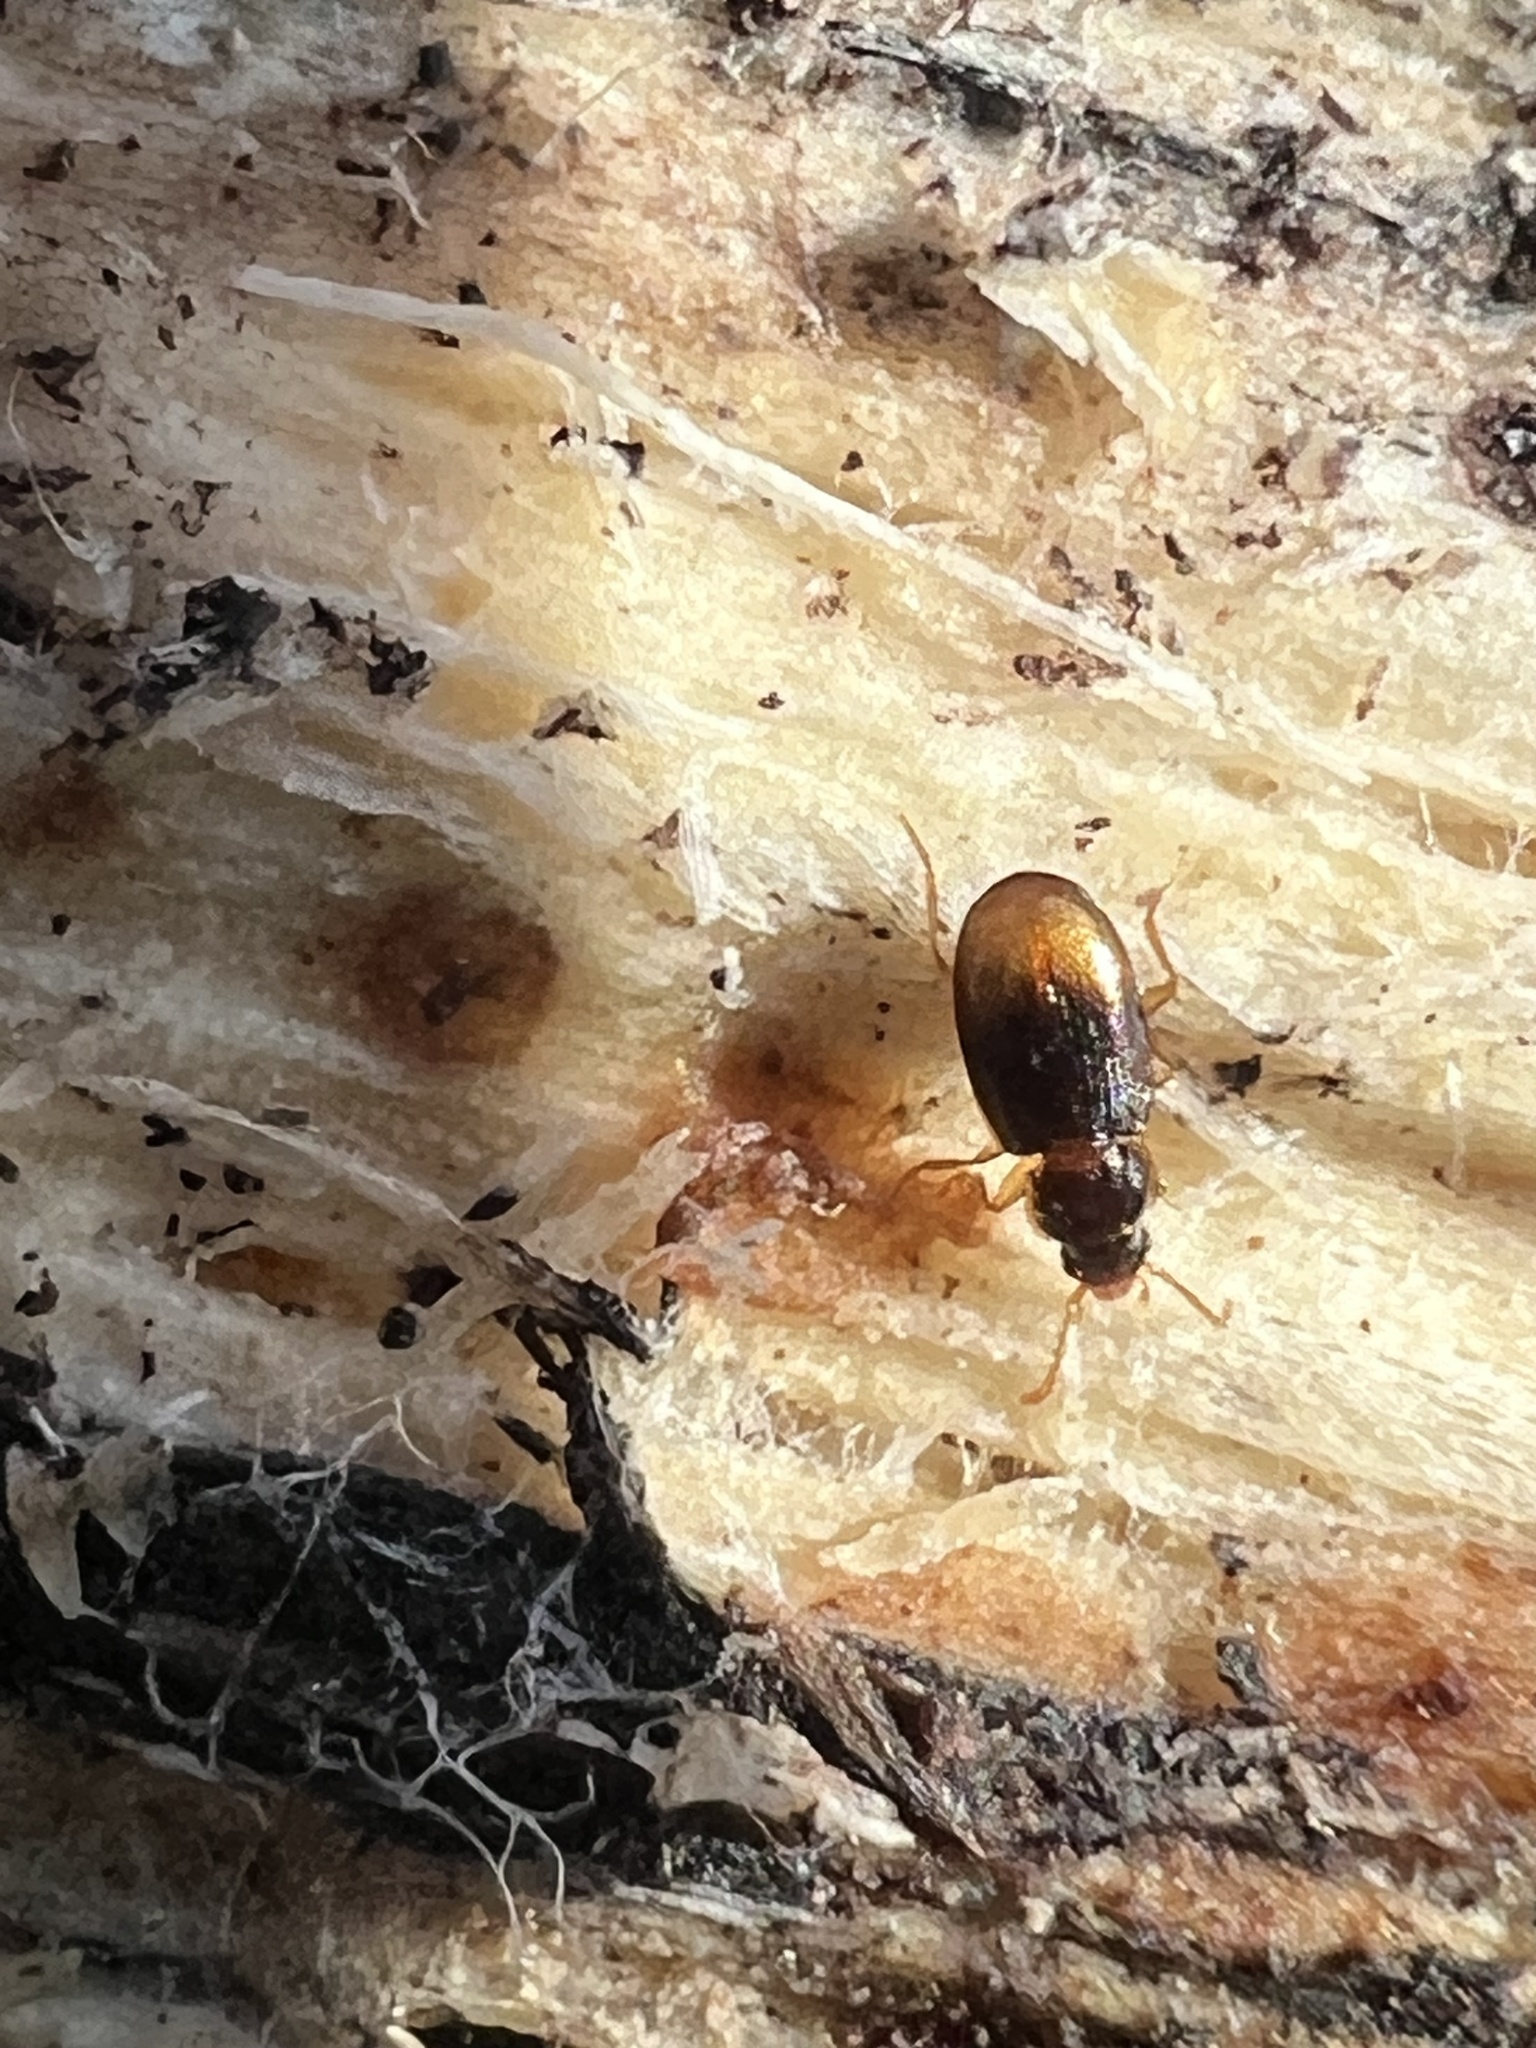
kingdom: Animalia
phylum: Arthropoda
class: Insecta
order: Coleoptera
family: Carabidae
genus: Mioptachys
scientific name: Mioptachys flavicauda
